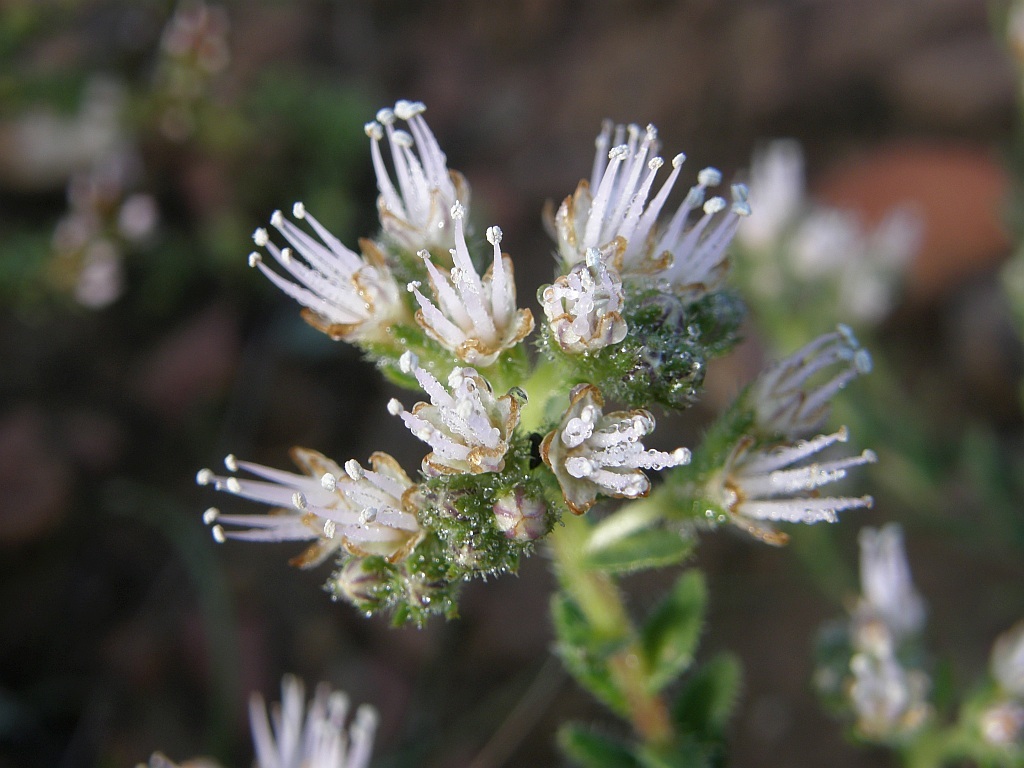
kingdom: Plantae
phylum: Tracheophyta
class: Magnoliopsida
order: Boraginales
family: Boraginaceae
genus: Lobostemon
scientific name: Lobostemon capitatus
